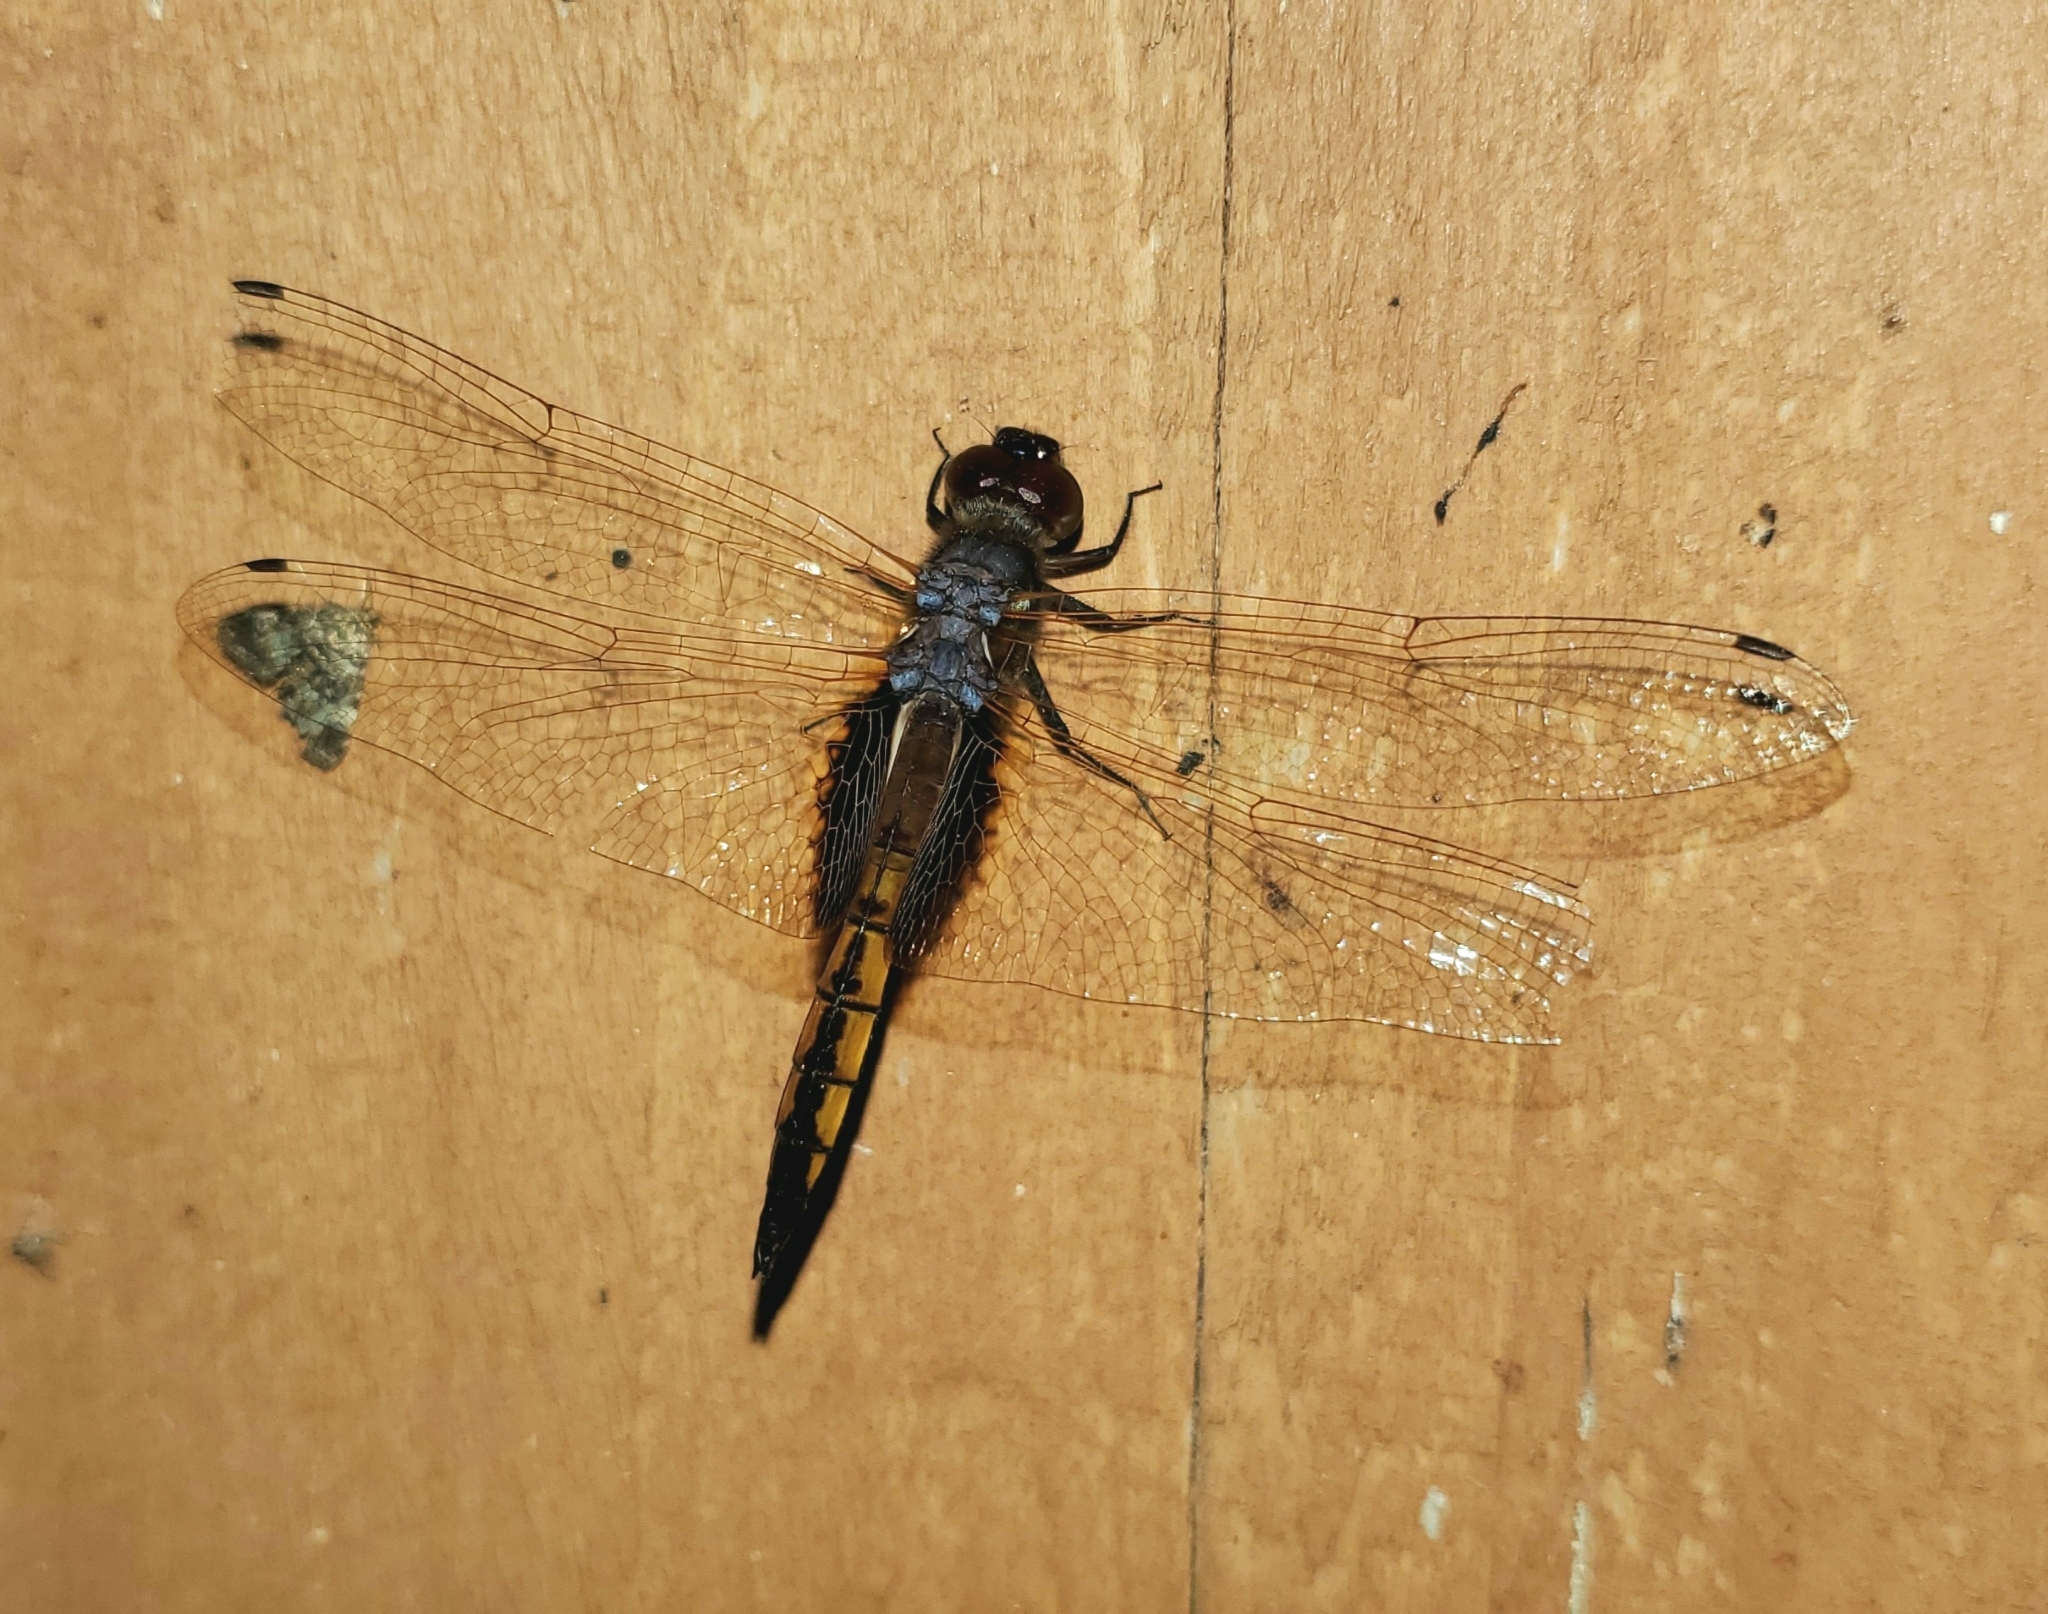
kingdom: Animalia
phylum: Arthropoda
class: Insecta
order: Odonata
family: Libellulidae
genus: Miathyria
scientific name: Miathyria marcella
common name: Hyacinth glider
